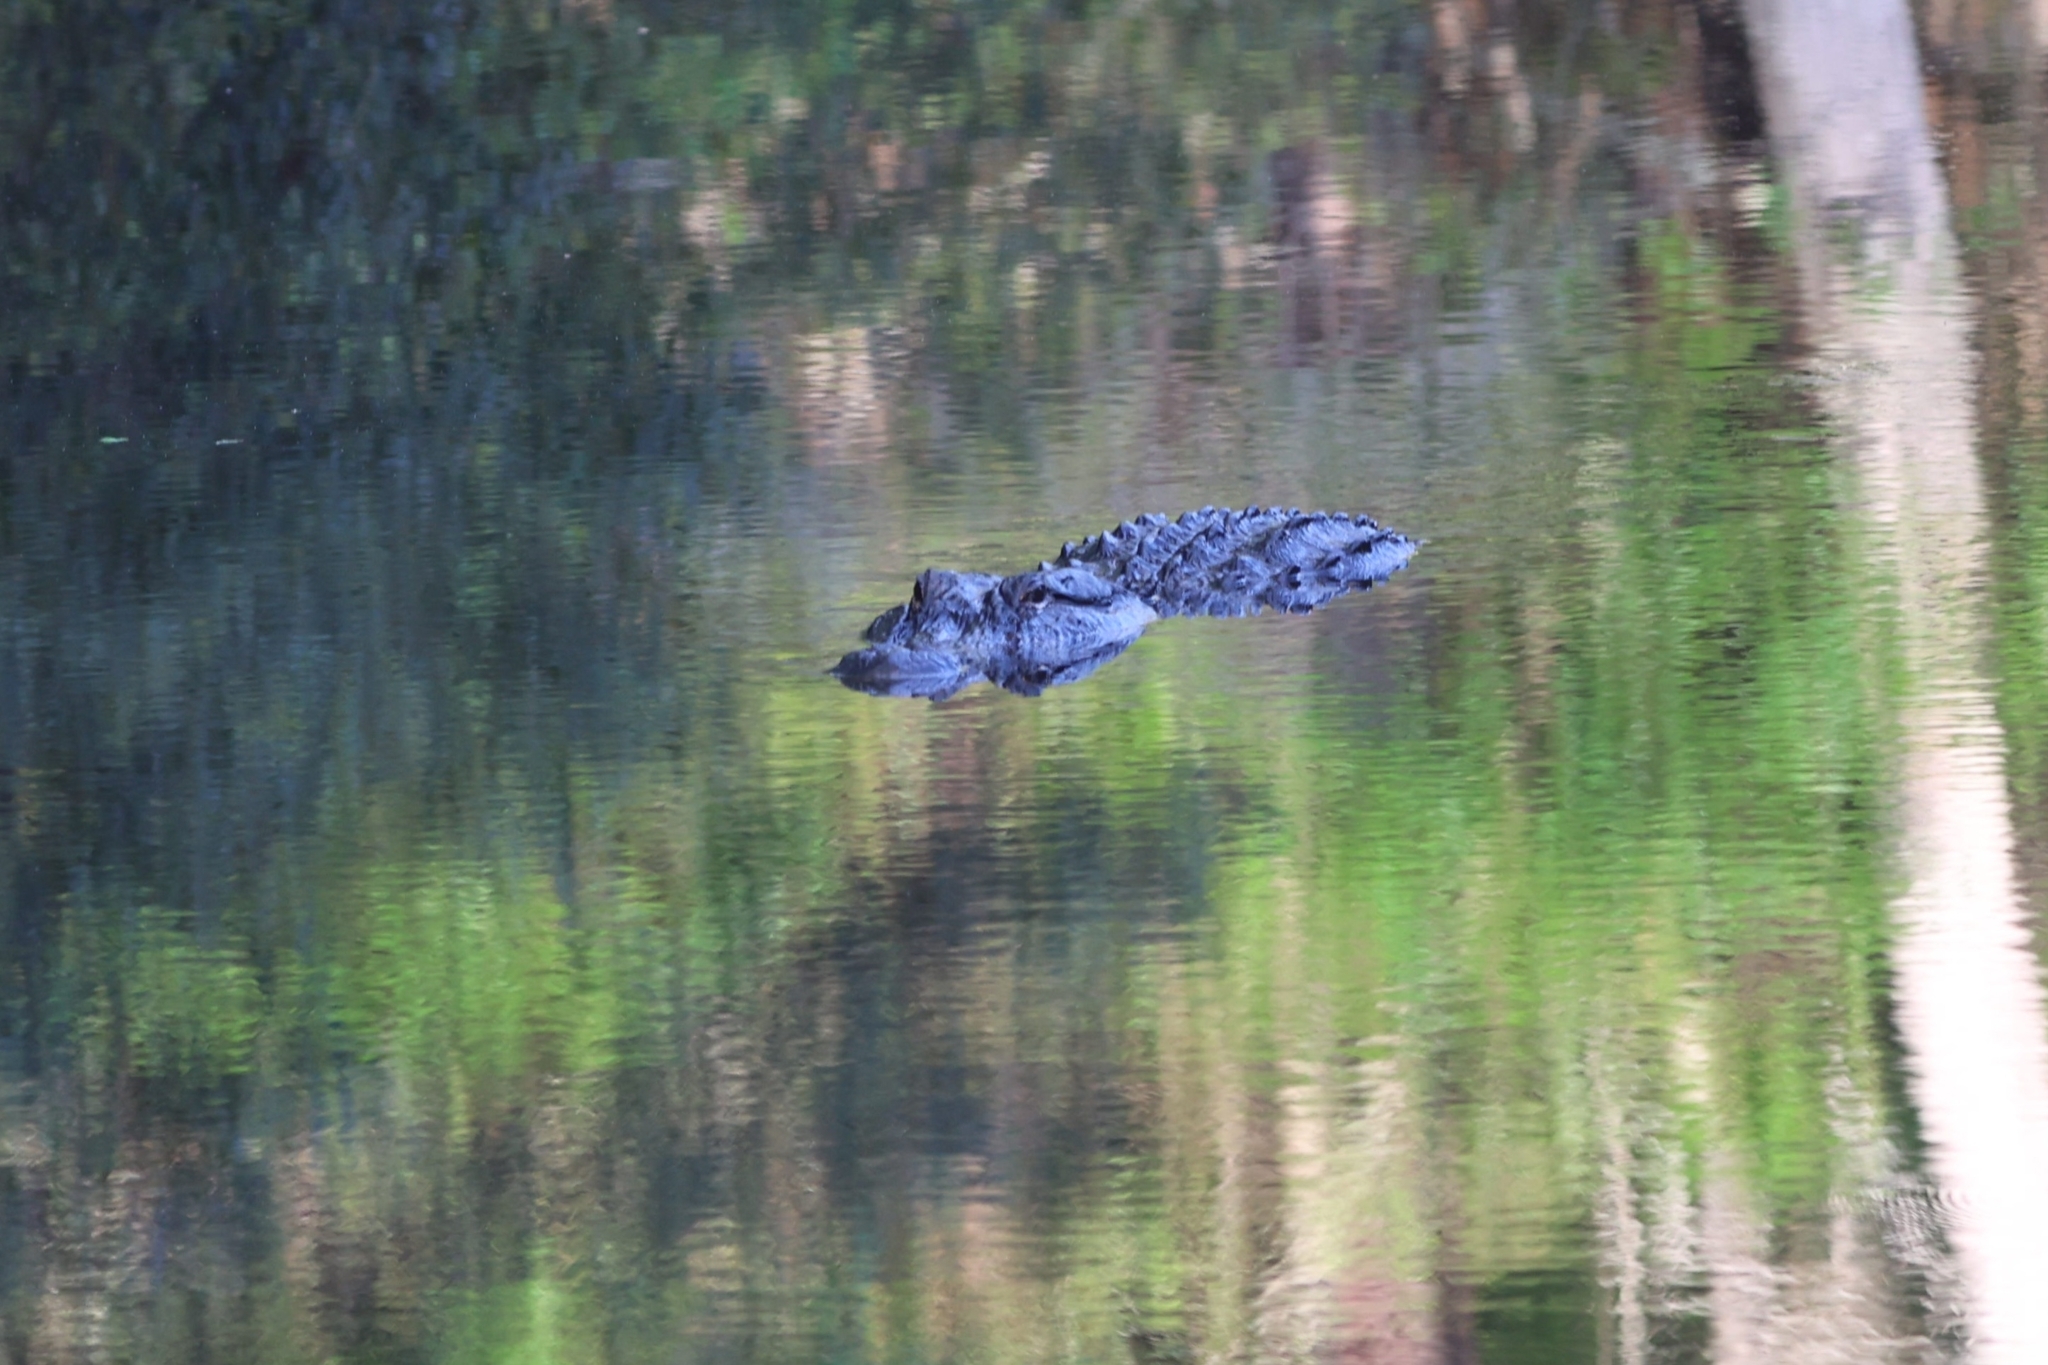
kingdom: Animalia
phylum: Chordata
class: Crocodylia
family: Alligatoridae
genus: Alligator
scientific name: Alligator mississippiensis
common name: American alligator
